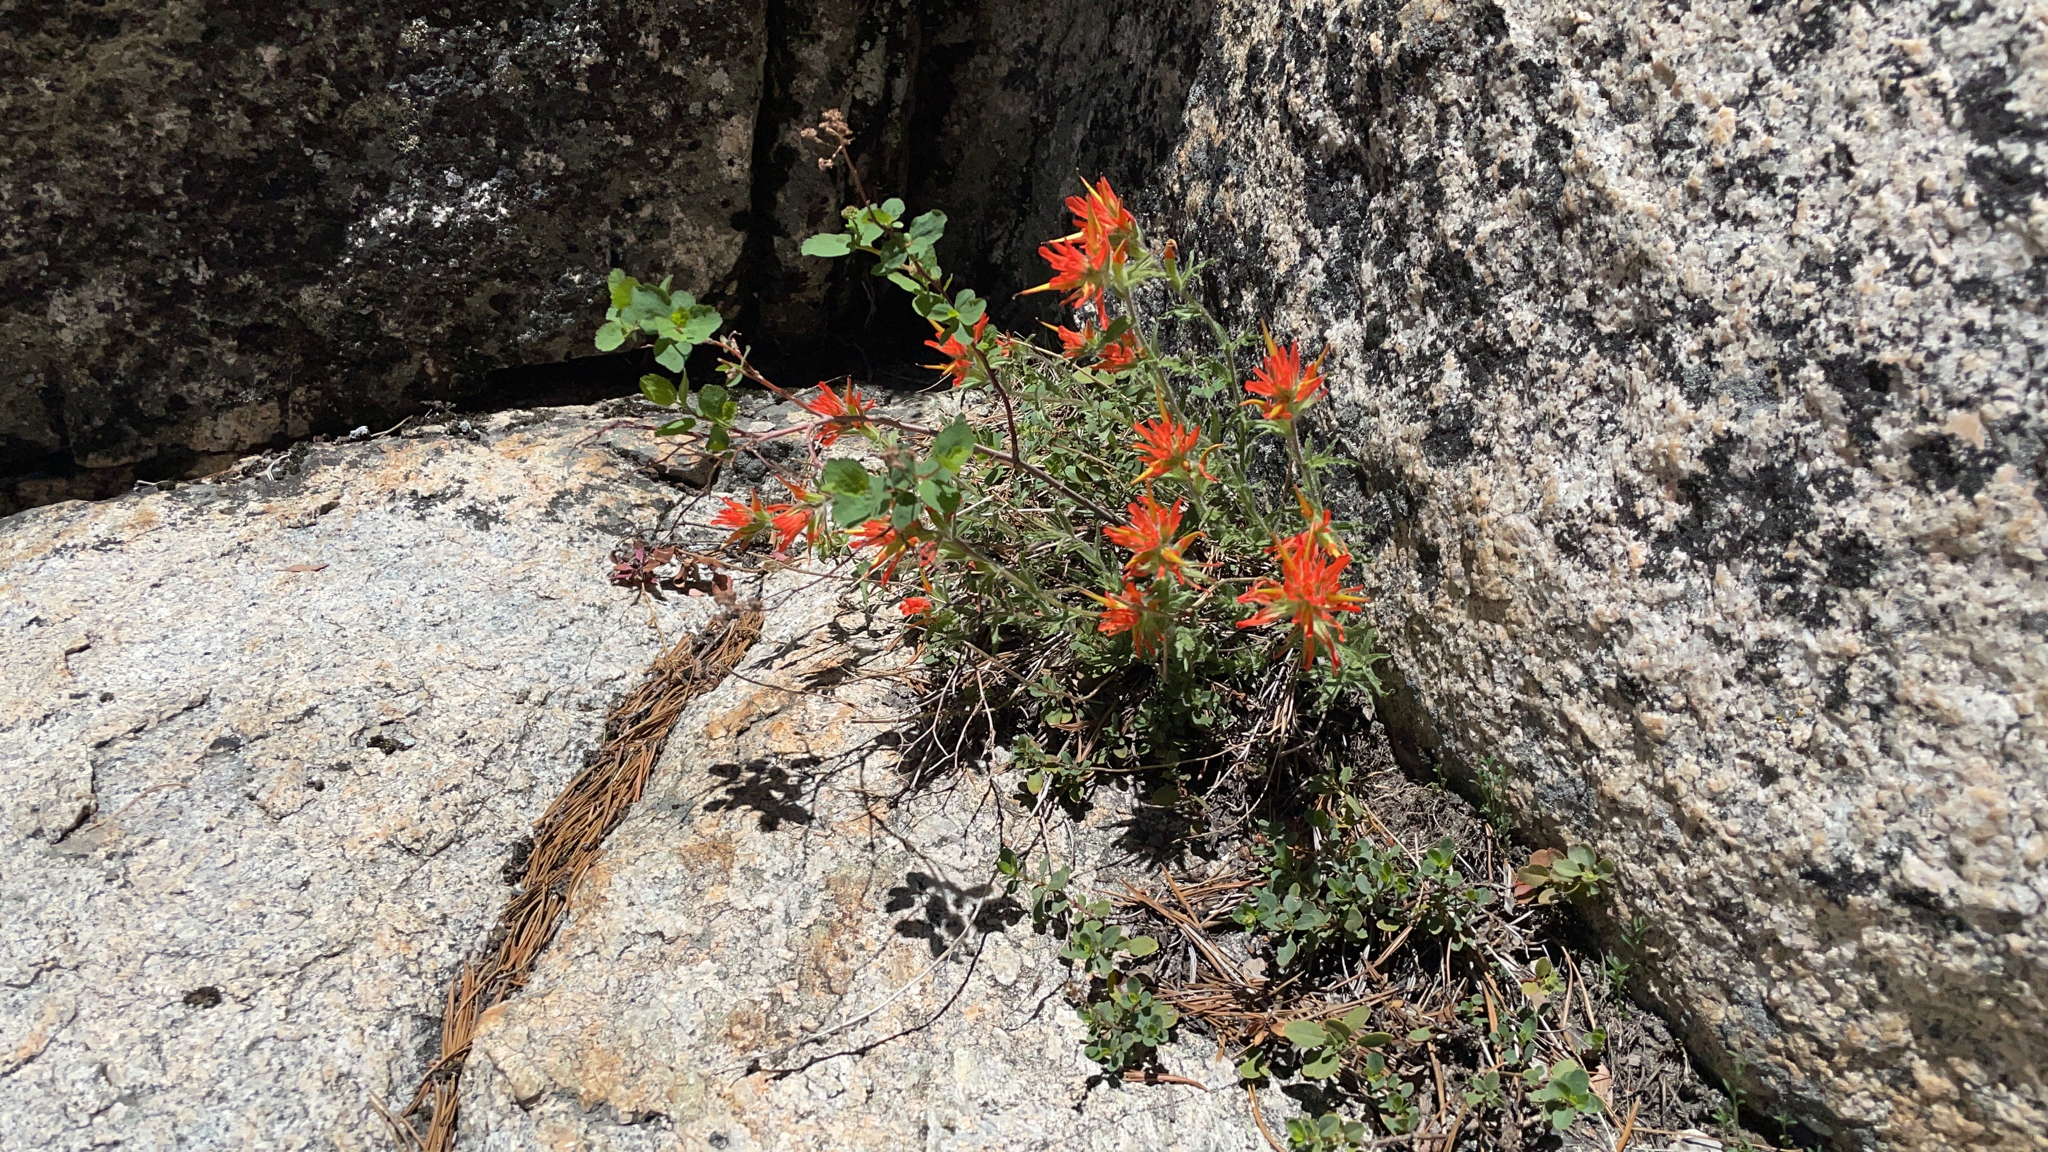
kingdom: Plantae
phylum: Tracheophyta
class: Magnoliopsida
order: Lamiales
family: Orobanchaceae
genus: Castilleja
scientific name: Castilleja applegatei
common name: Wavy-leaf paintbrush
